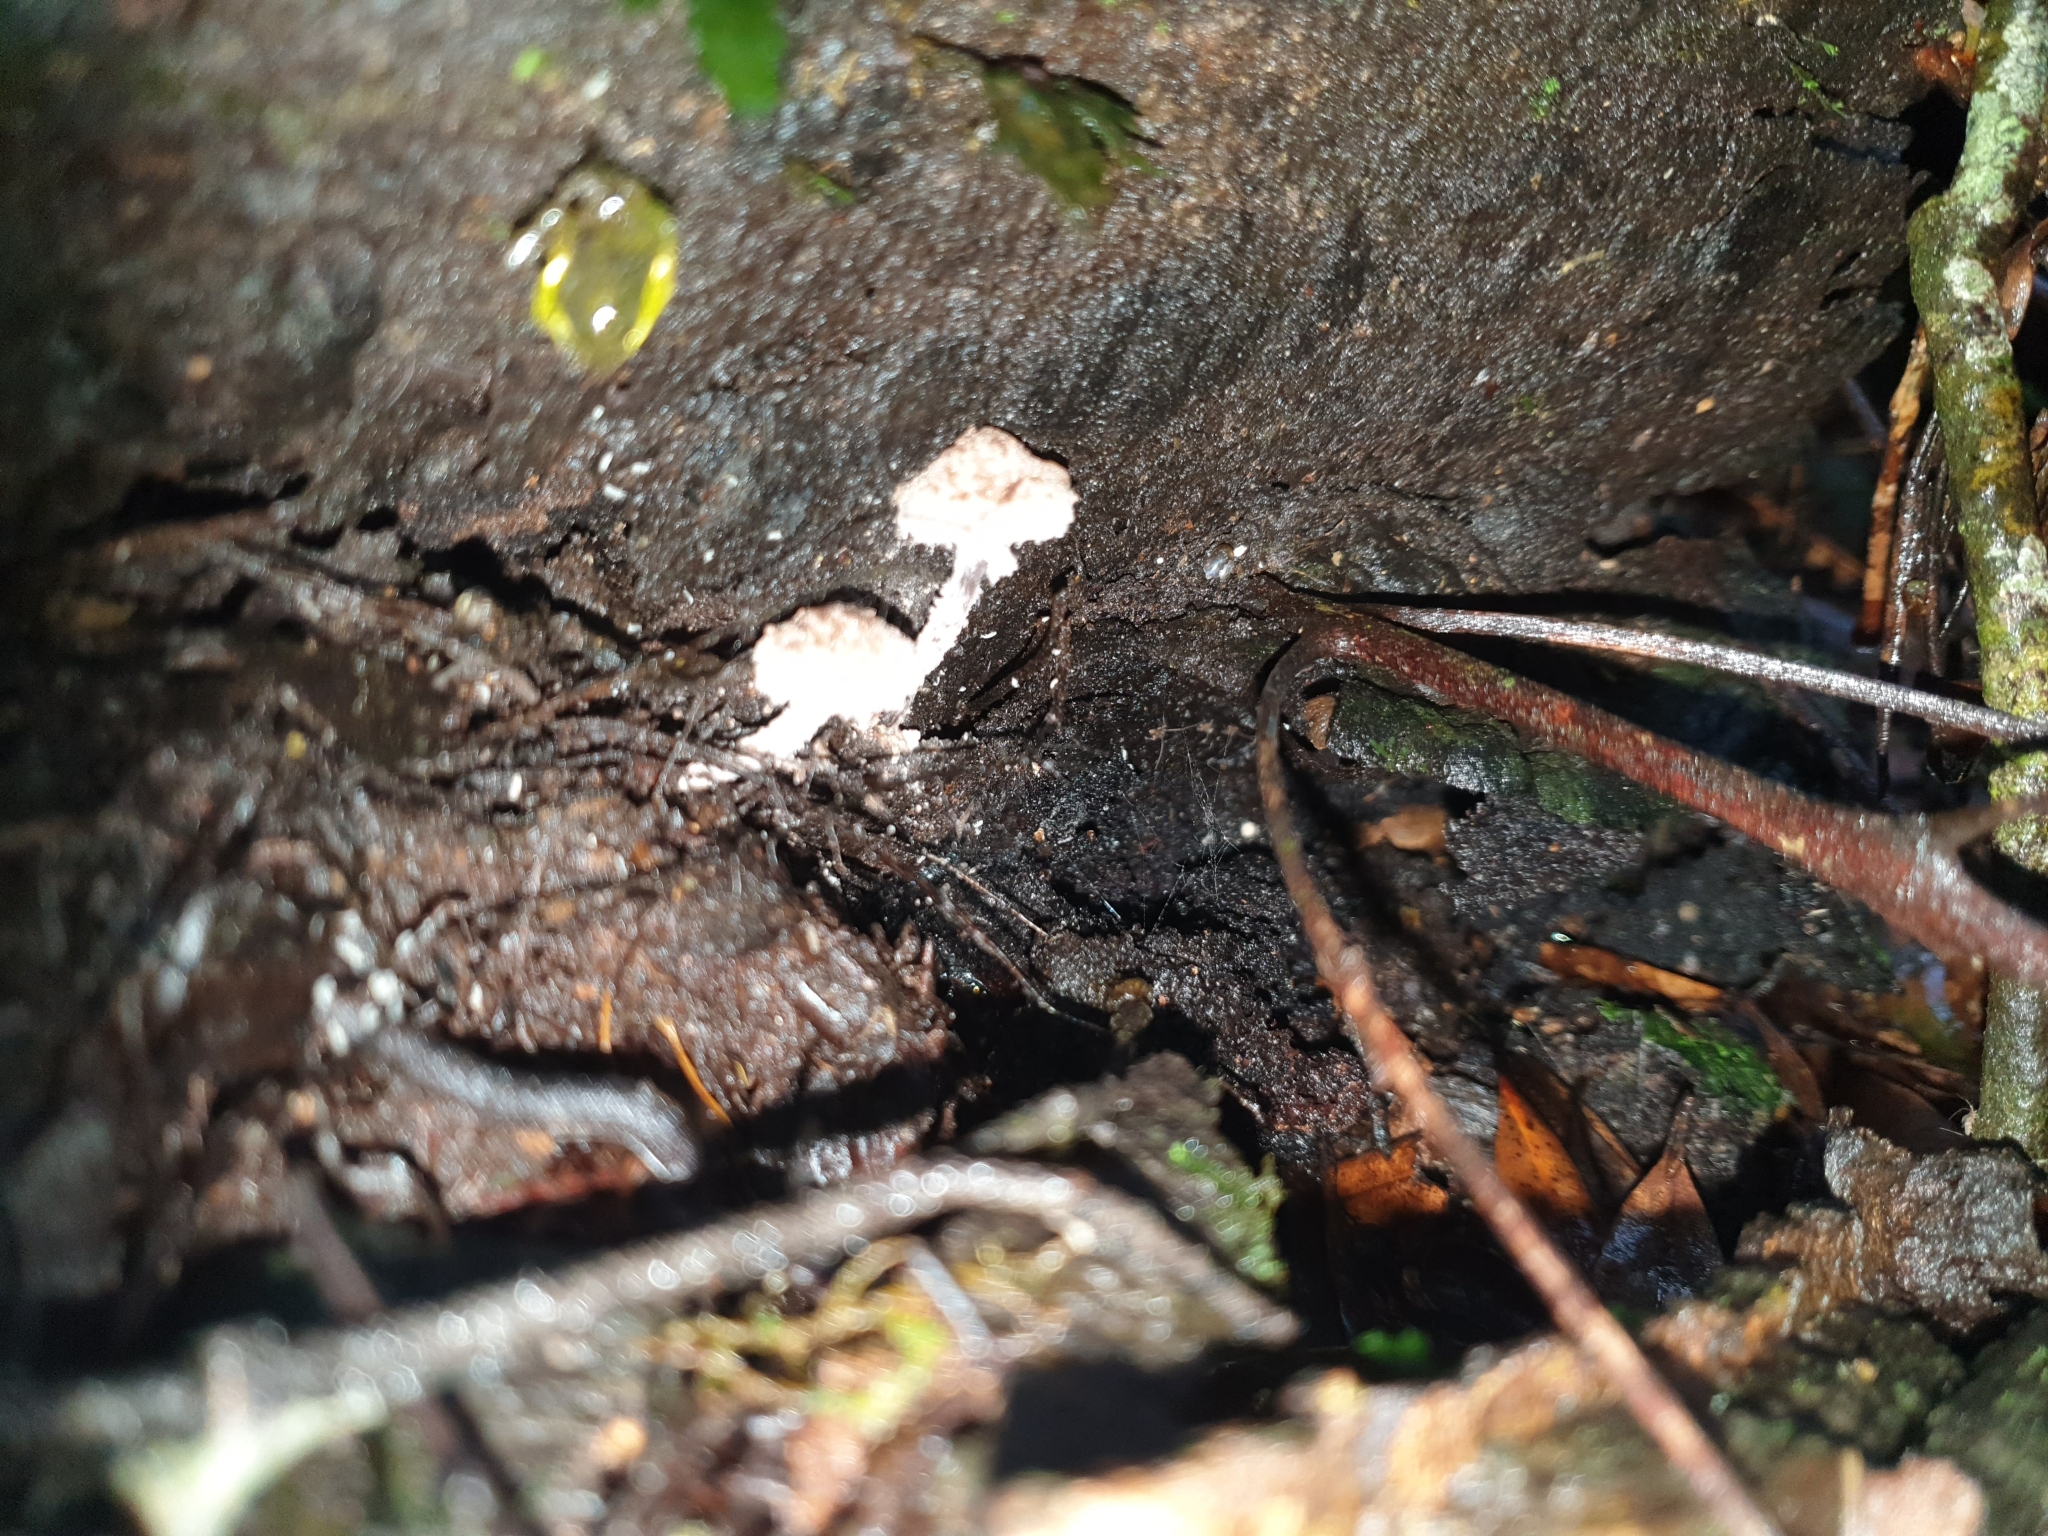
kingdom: Fungi
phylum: Basidiomycota
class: Agaricomycetes
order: Agaricales
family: Agaricaceae
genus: Melanophyllum
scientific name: Melanophyllum haematospermum
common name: Redspored dapperling
